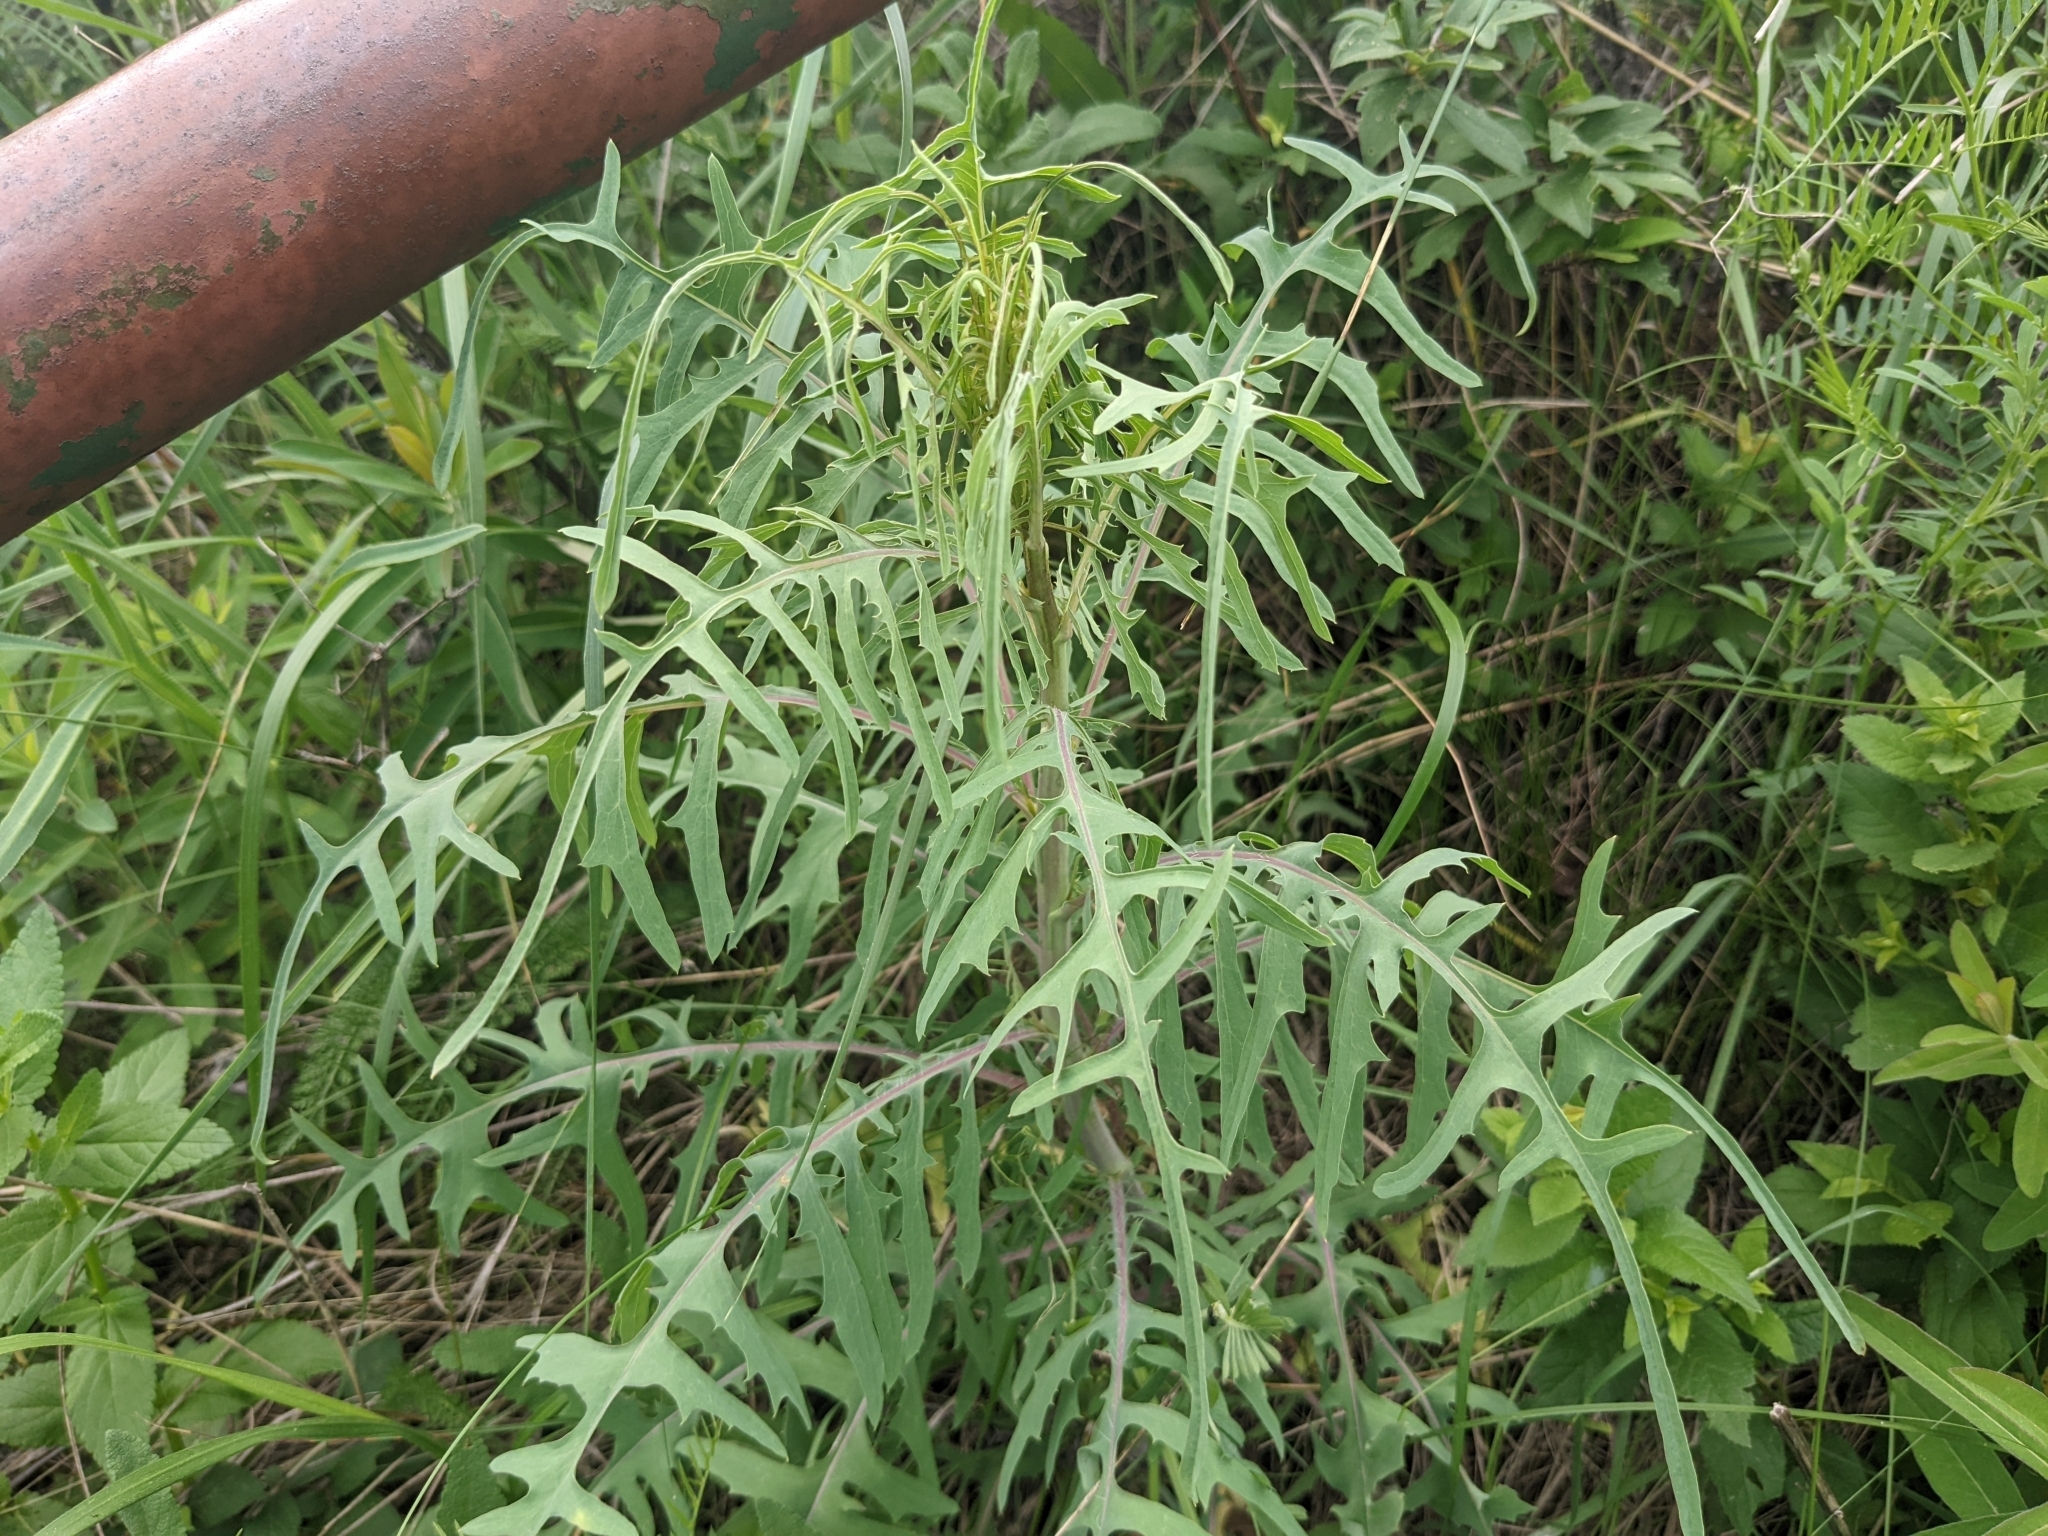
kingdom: Plantae
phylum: Tracheophyta
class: Magnoliopsida
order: Asterales
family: Asteraceae
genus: Lactuca
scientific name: Lactuca viminea
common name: Pliant lettuce
